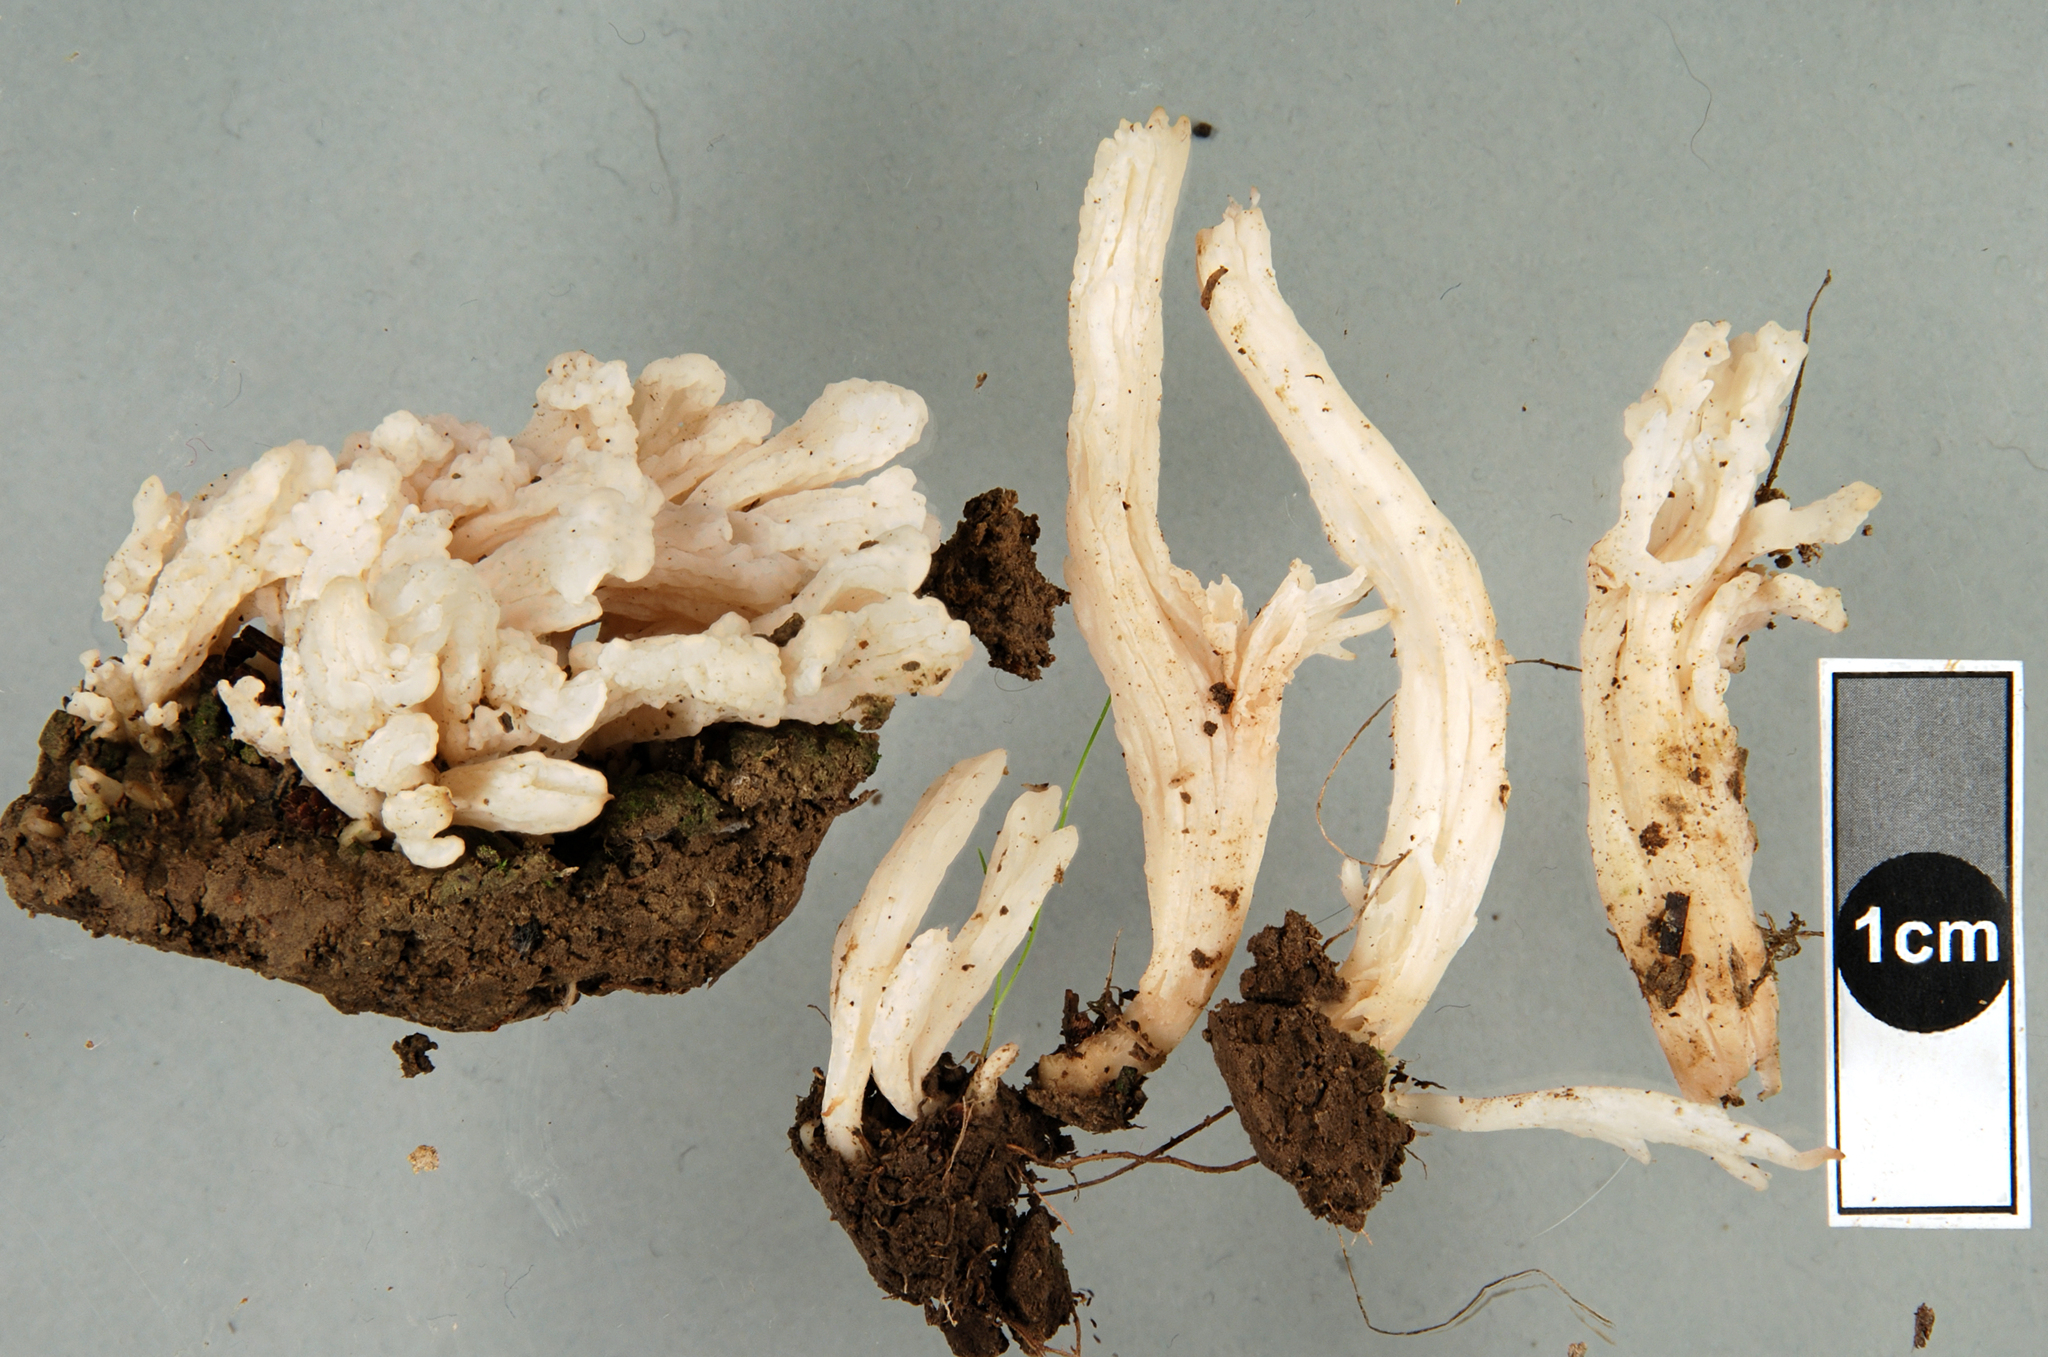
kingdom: Fungi
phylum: Basidiomycota
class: Agaricomycetes
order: Cantharellales
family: Hydnaceae
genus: Clavulina
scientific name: Clavulina rugosa
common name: Wrinkled club
